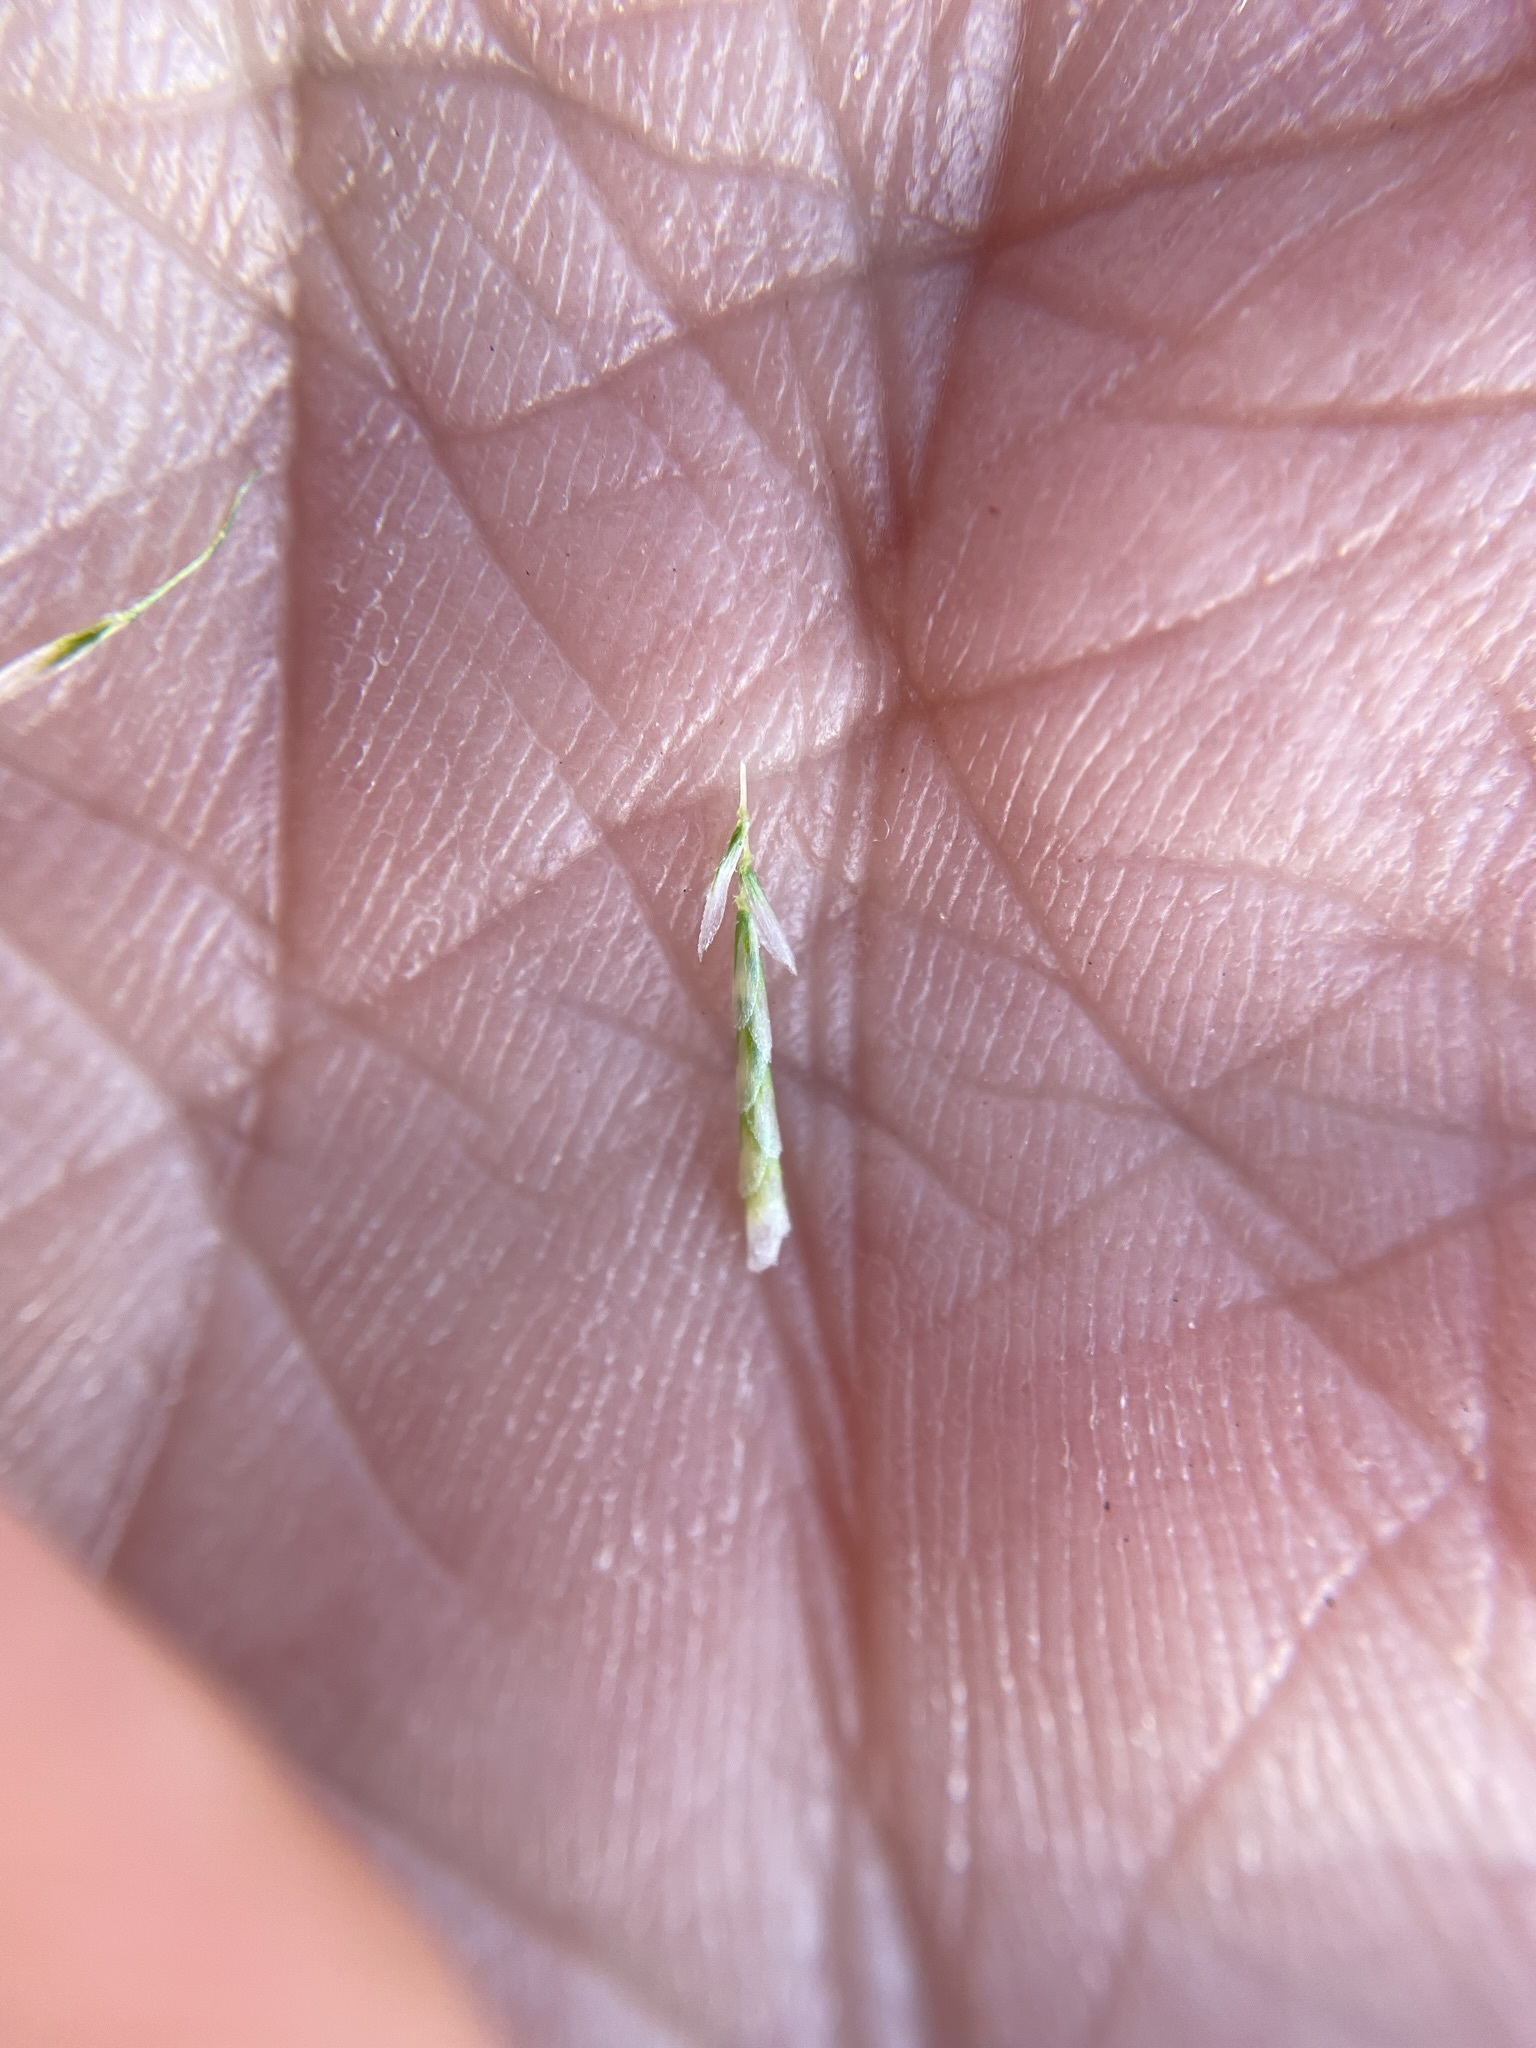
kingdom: Plantae
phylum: Tracheophyta
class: Liliopsida
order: Poales
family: Poaceae
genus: Lamarckia
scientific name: Lamarckia aurea
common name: Golden dog's-tail
